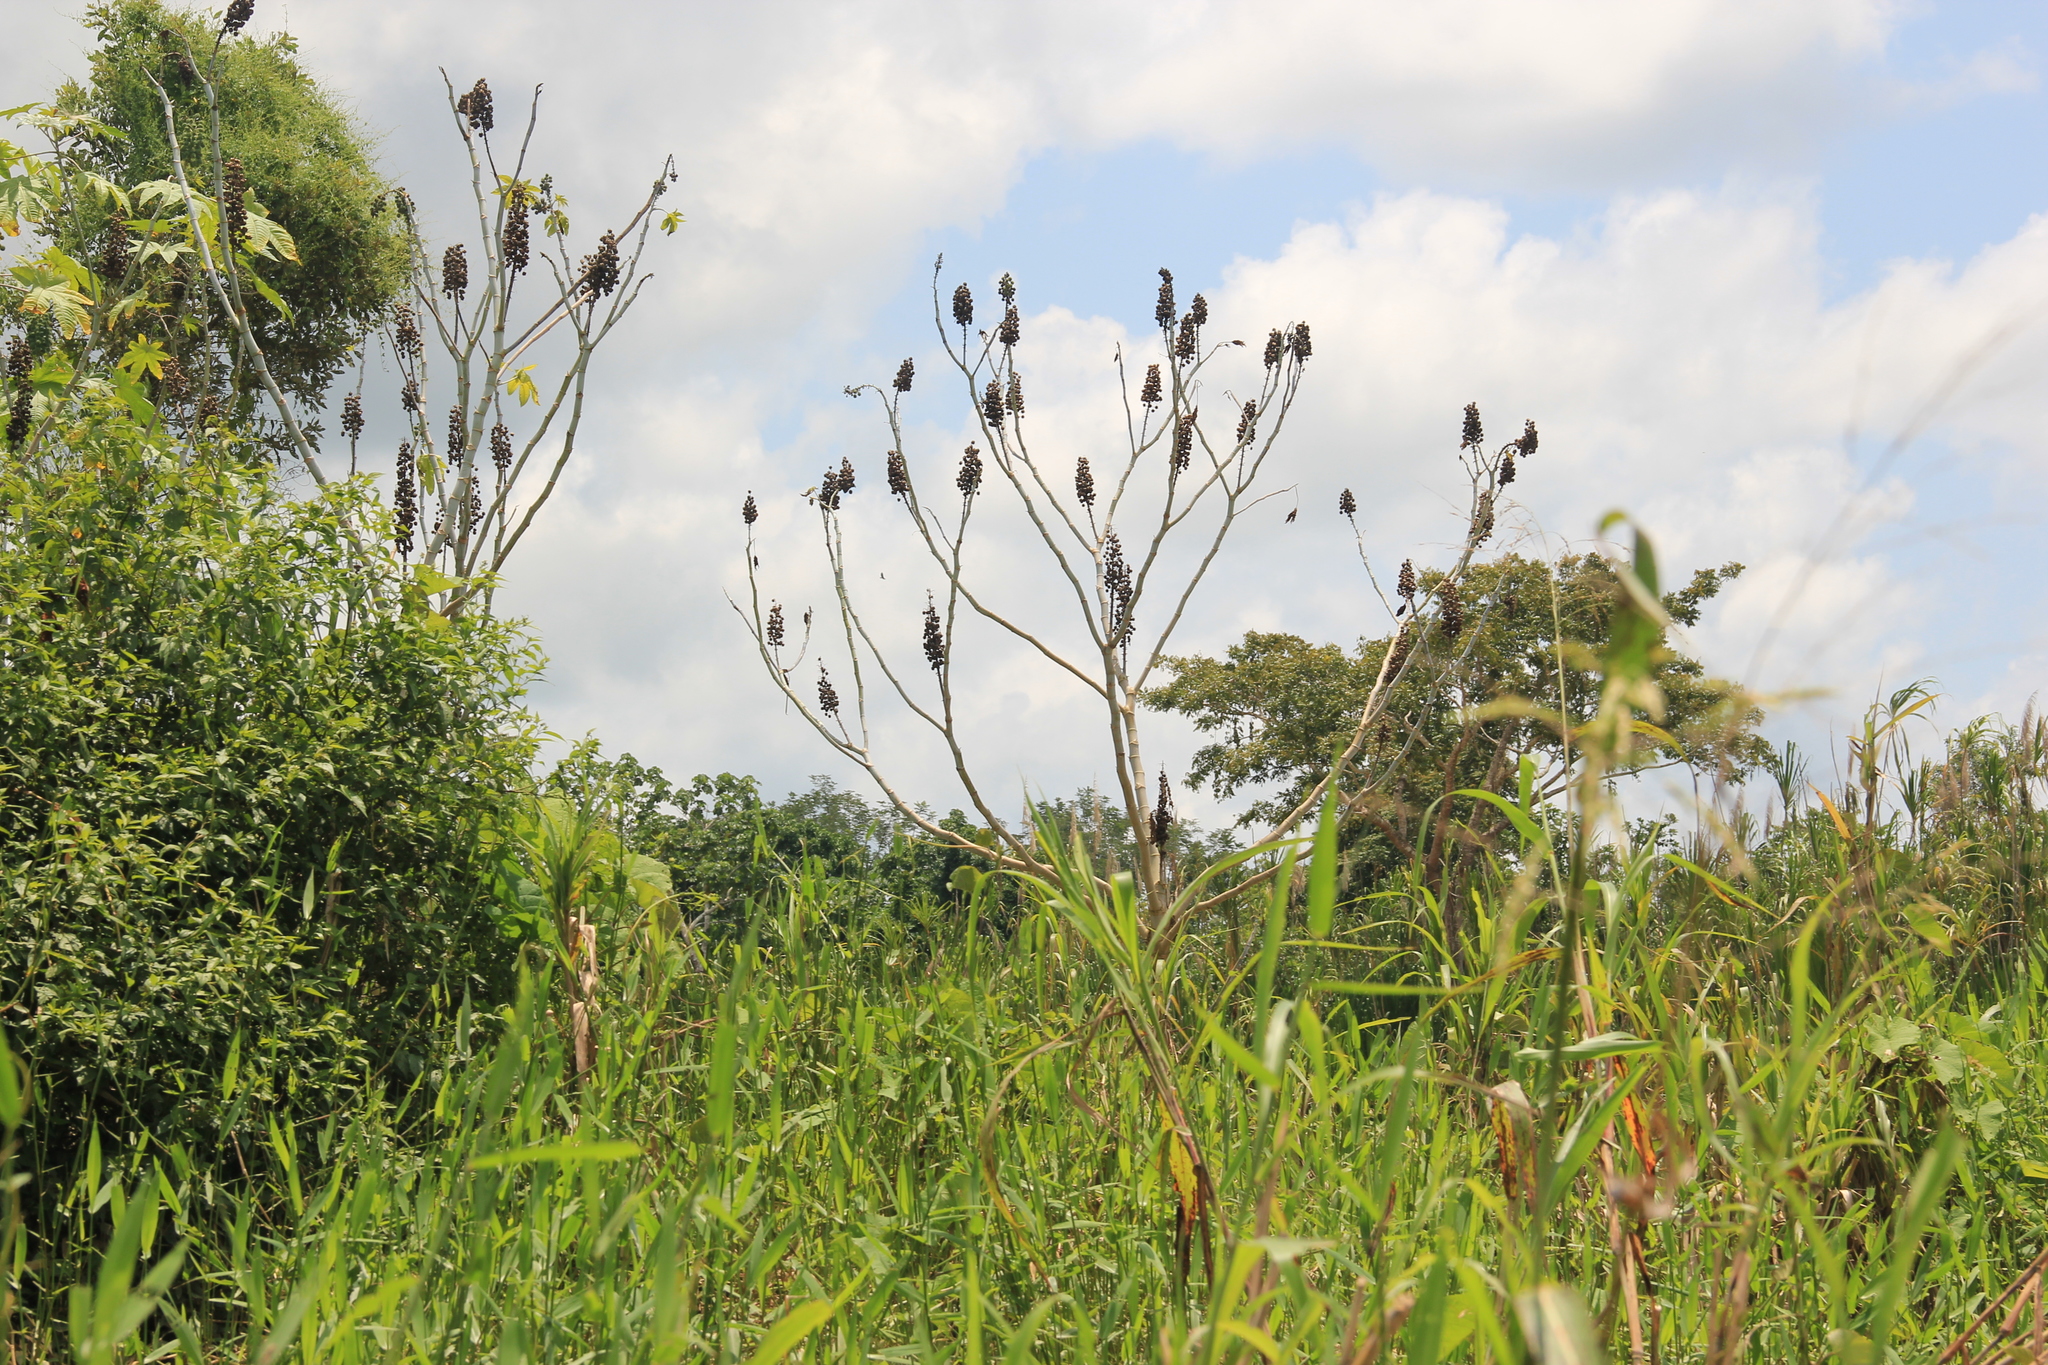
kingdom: Plantae
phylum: Tracheophyta
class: Magnoliopsida
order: Malpighiales
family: Euphorbiaceae
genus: Ricinus
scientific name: Ricinus communis
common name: Castor-oil-plant
